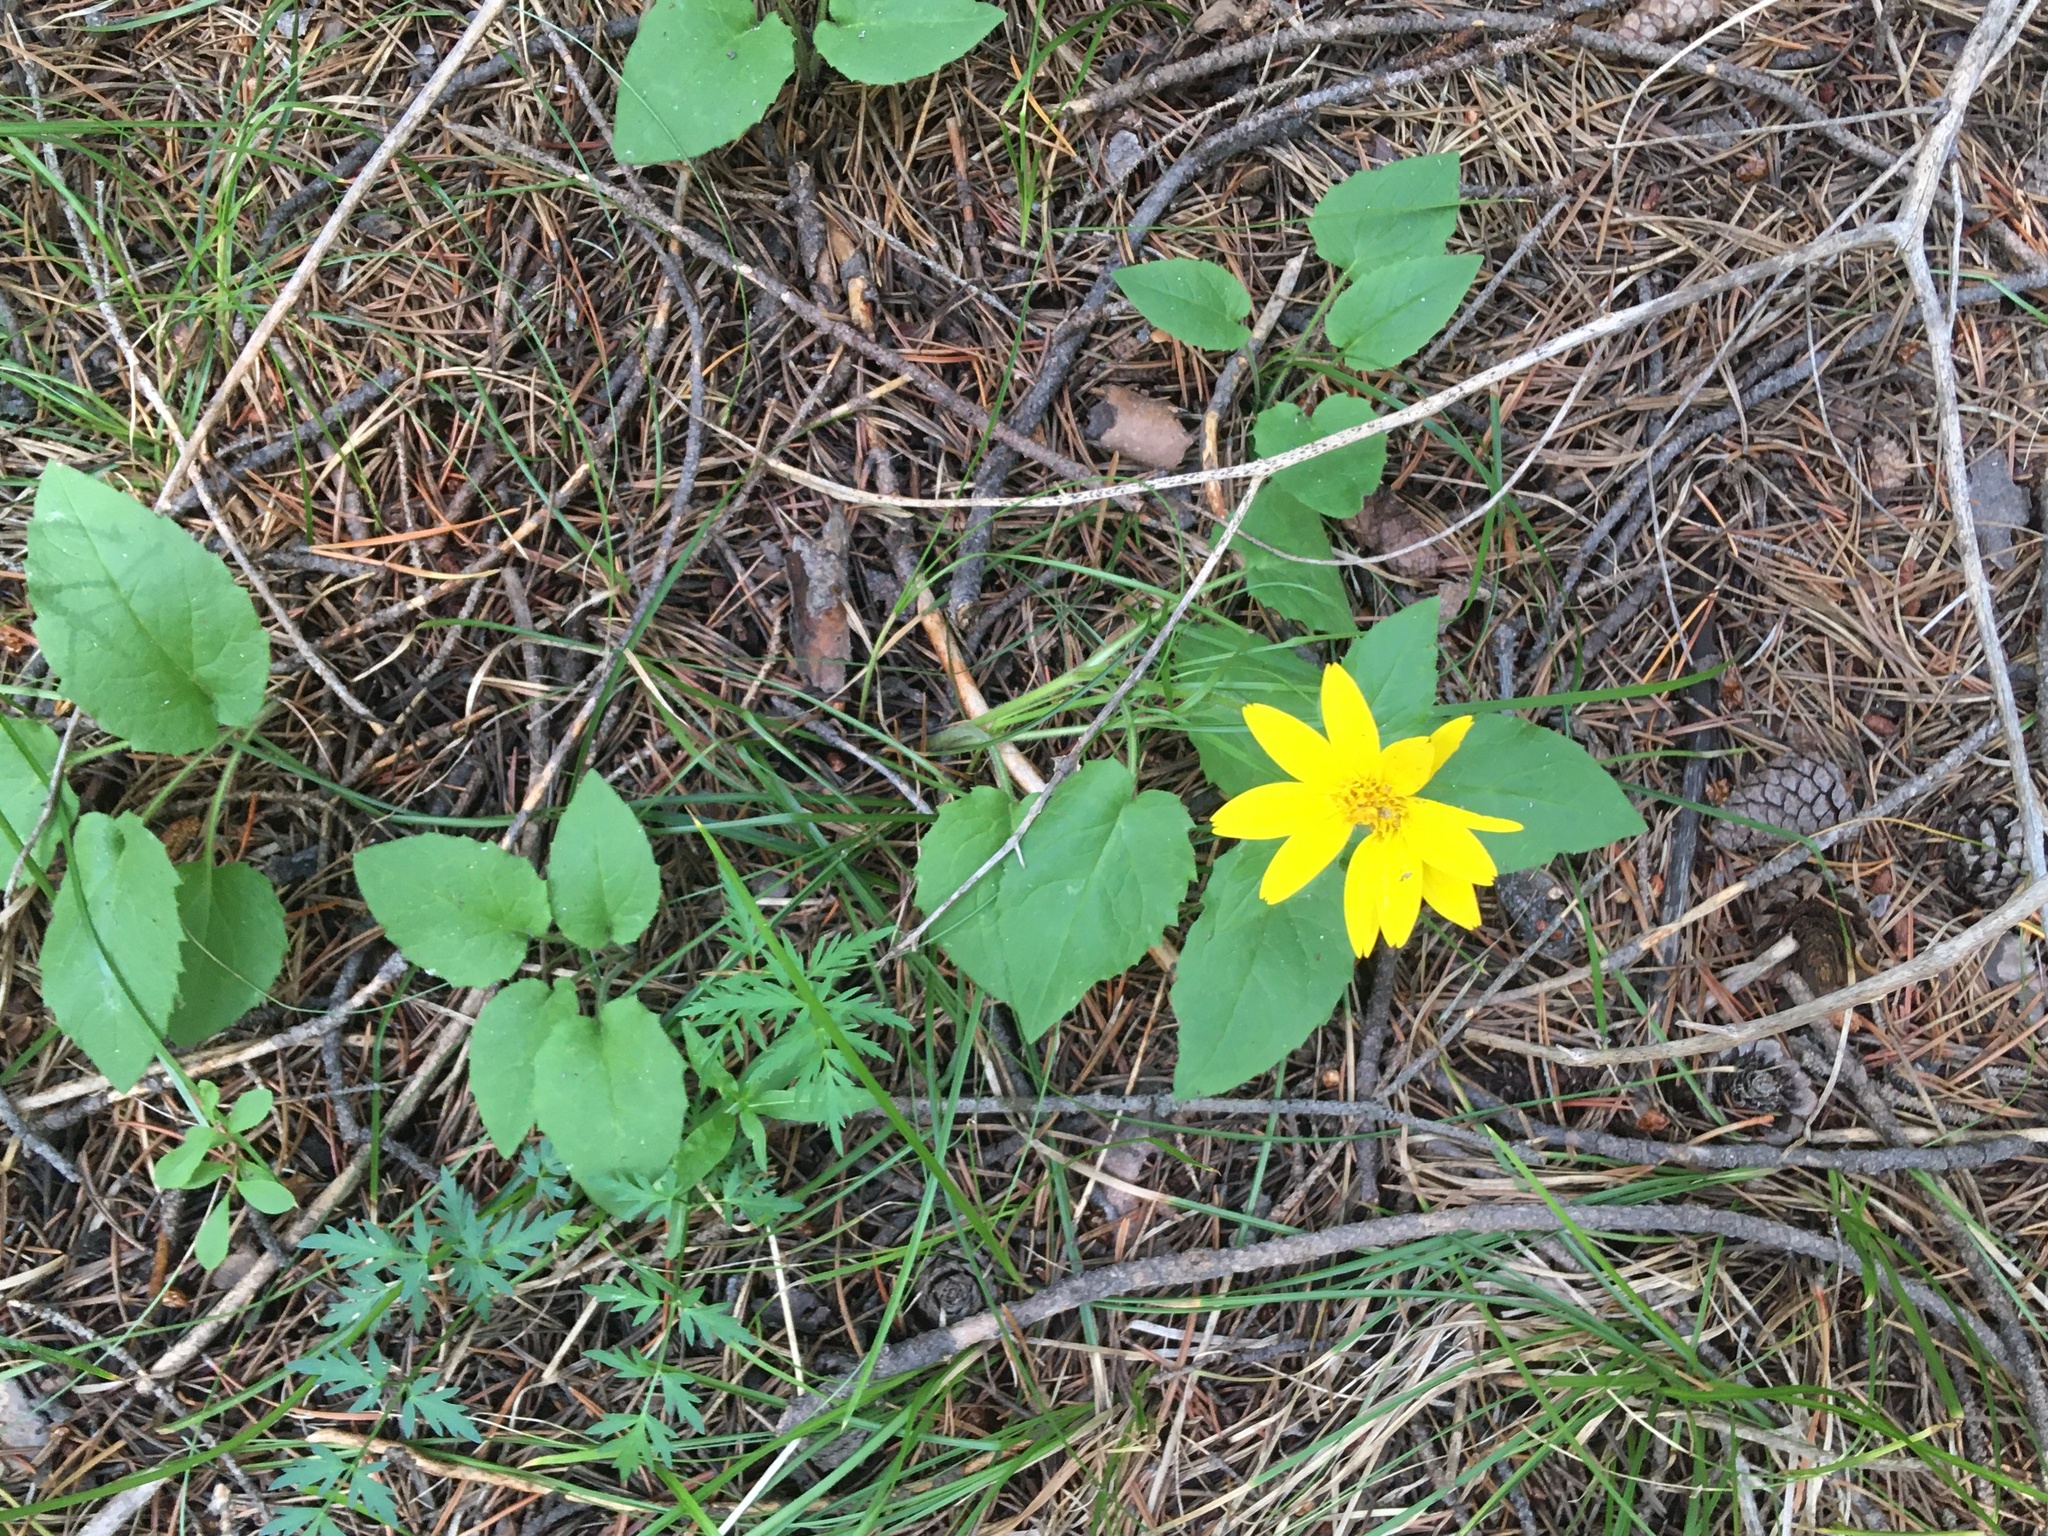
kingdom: Plantae
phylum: Tracheophyta
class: Magnoliopsida
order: Asterales
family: Asteraceae
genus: Arnica
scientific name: Arnica cordifolia
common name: Heart-leaf arnica
